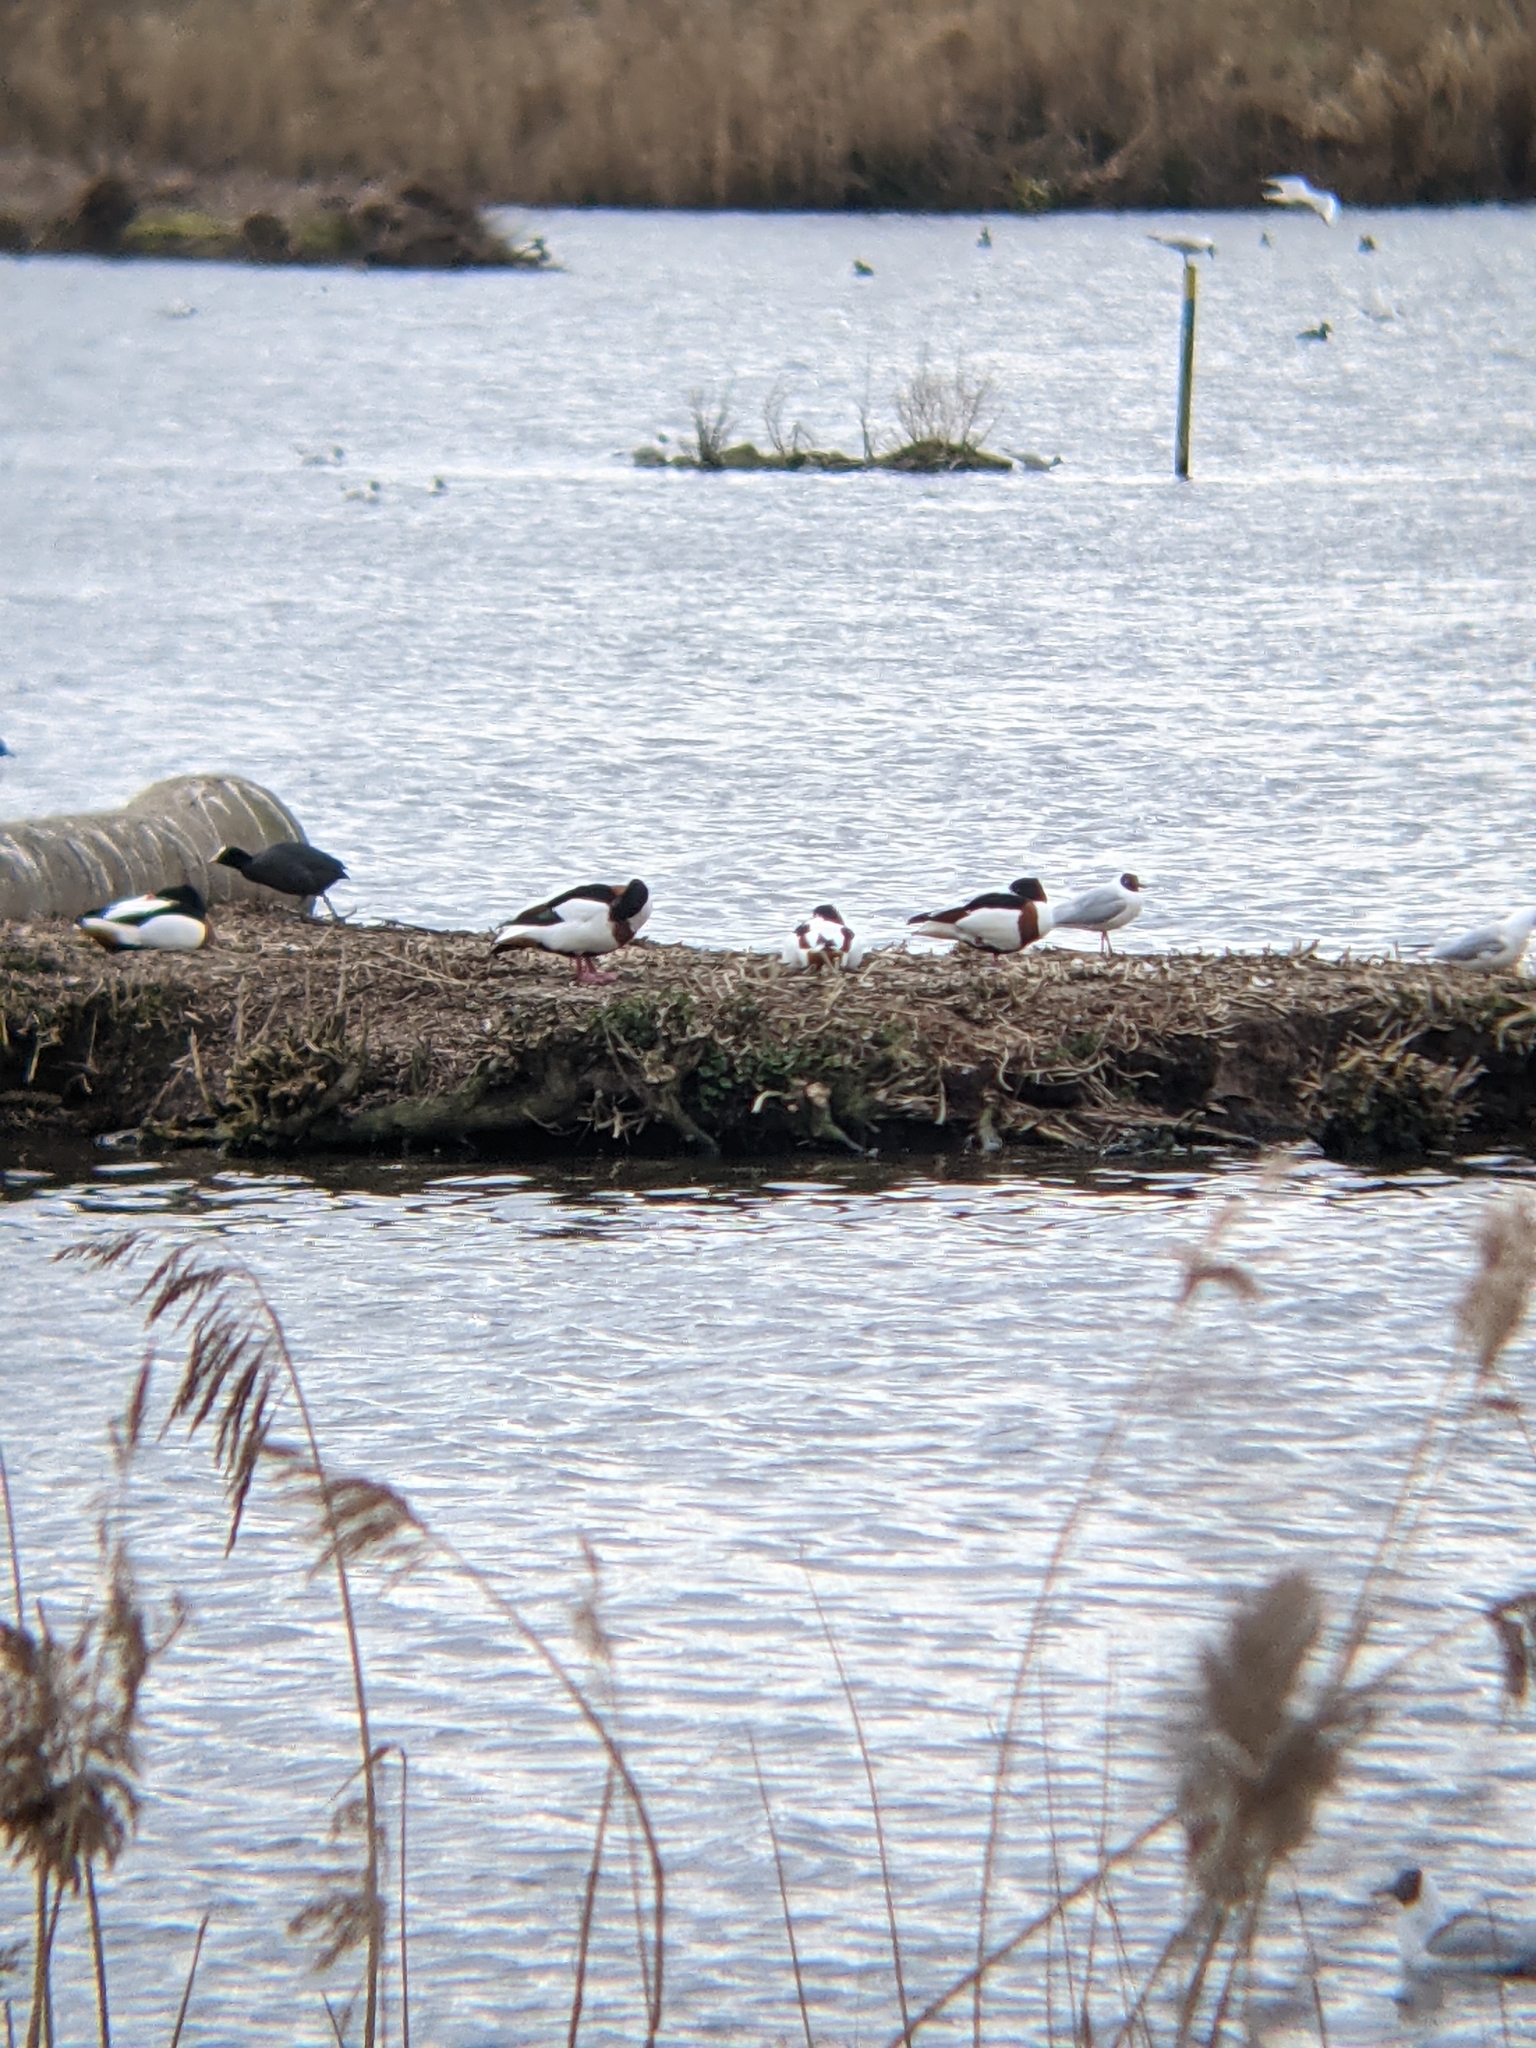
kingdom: Animalia
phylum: Chordata
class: Aves
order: Anseriformes
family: Anatidae
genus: Tadorna
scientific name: Tadorna tadorna
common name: Common shelduck
